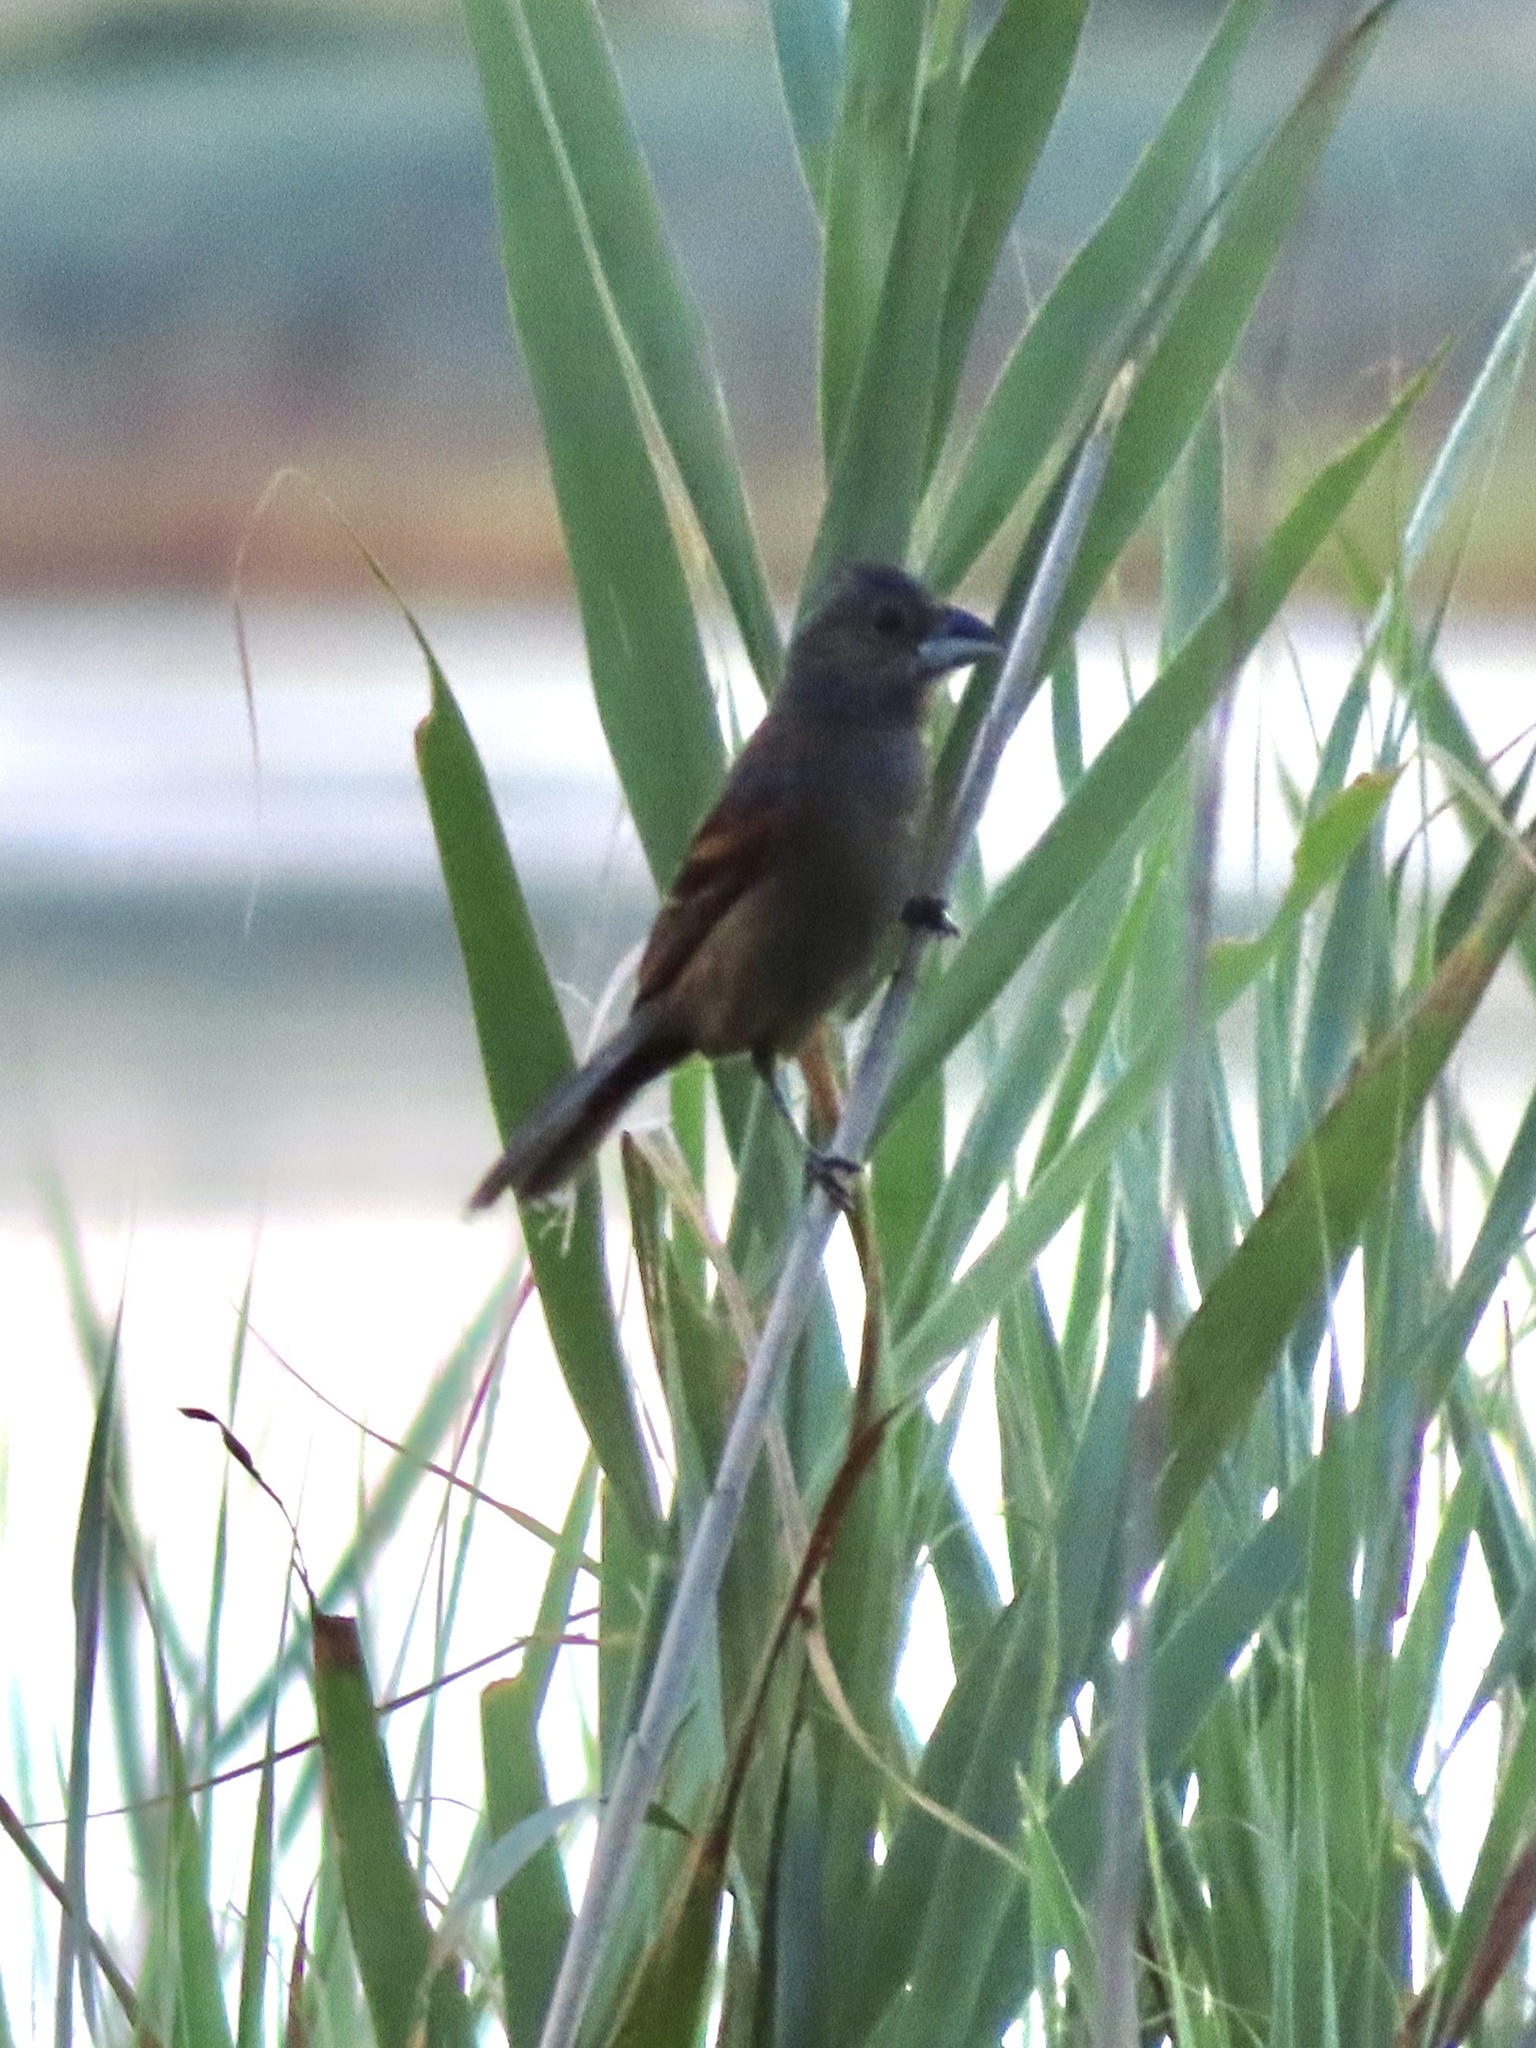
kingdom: Animalia
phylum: Chordata
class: Aves
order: Passeriformes
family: Cardinalidae
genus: Passerina
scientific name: Passerina caerulea
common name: Blue grosbeak
